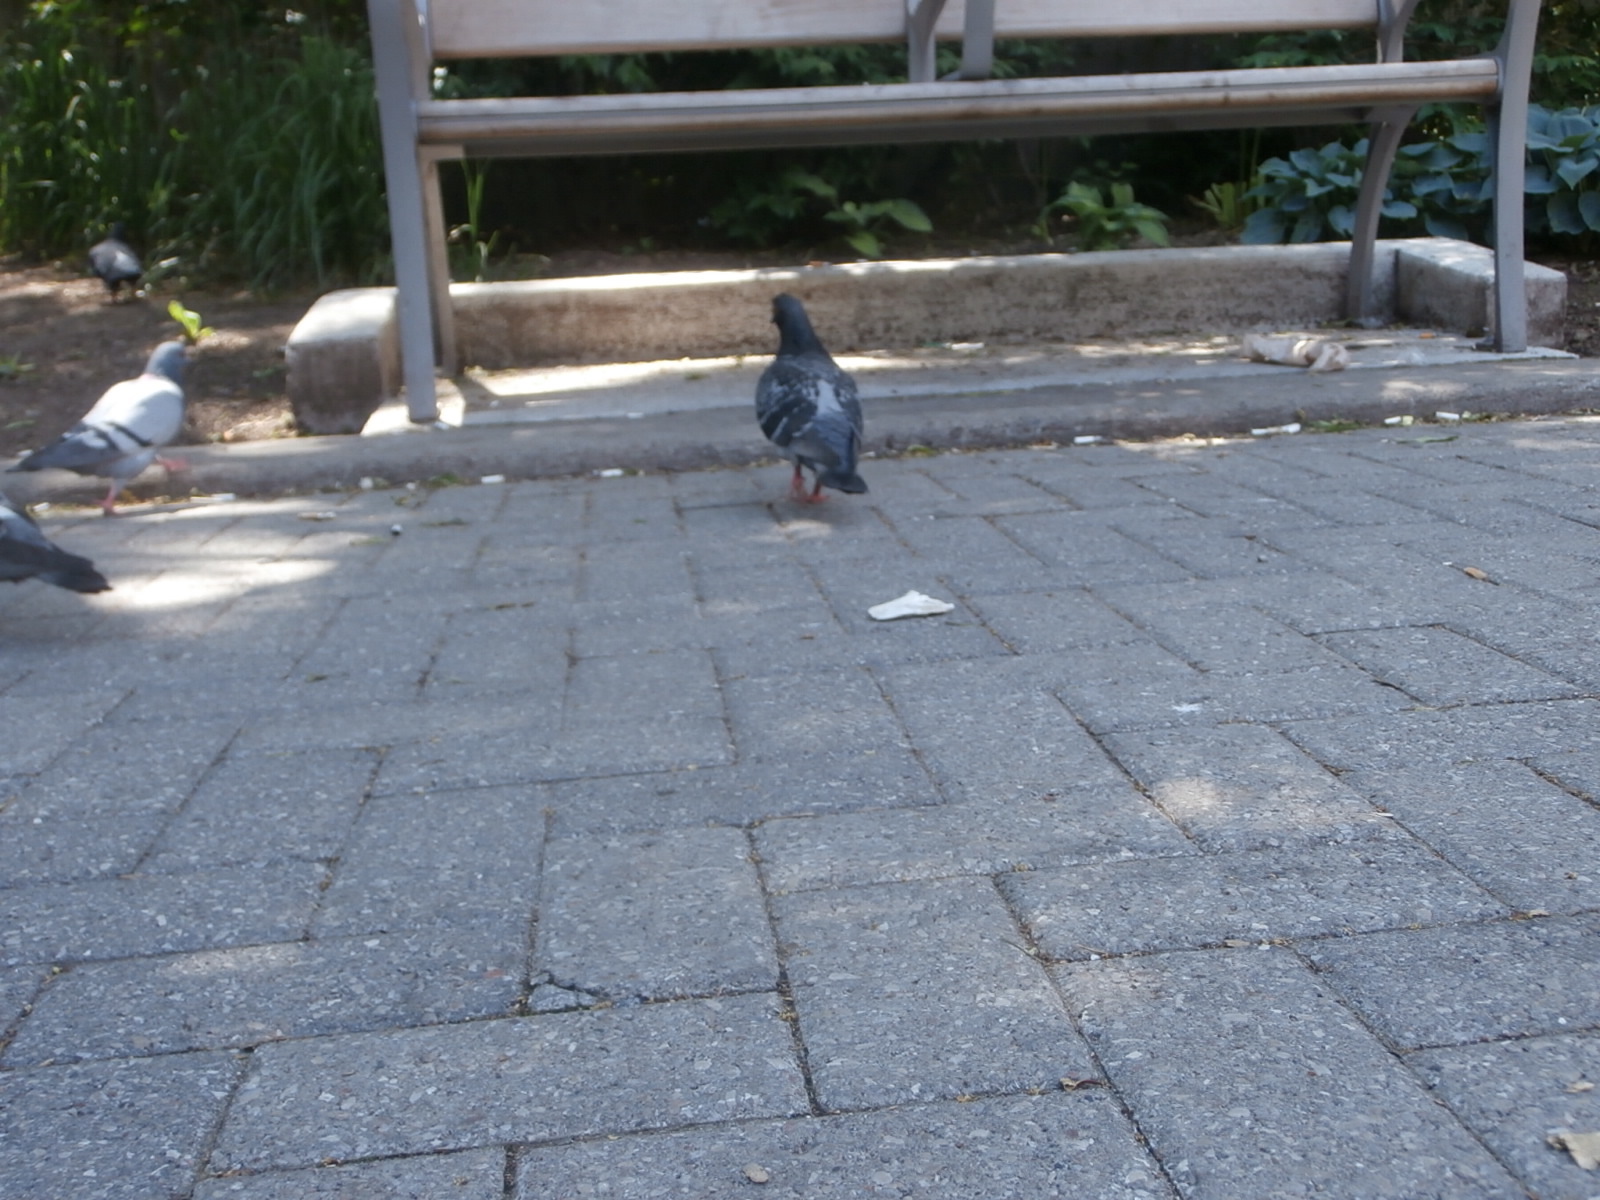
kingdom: Animalia
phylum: Chordata
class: Aves
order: Columbiformes
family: Columbidae
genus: Columba
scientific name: Columba livia
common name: Rock pigeon
